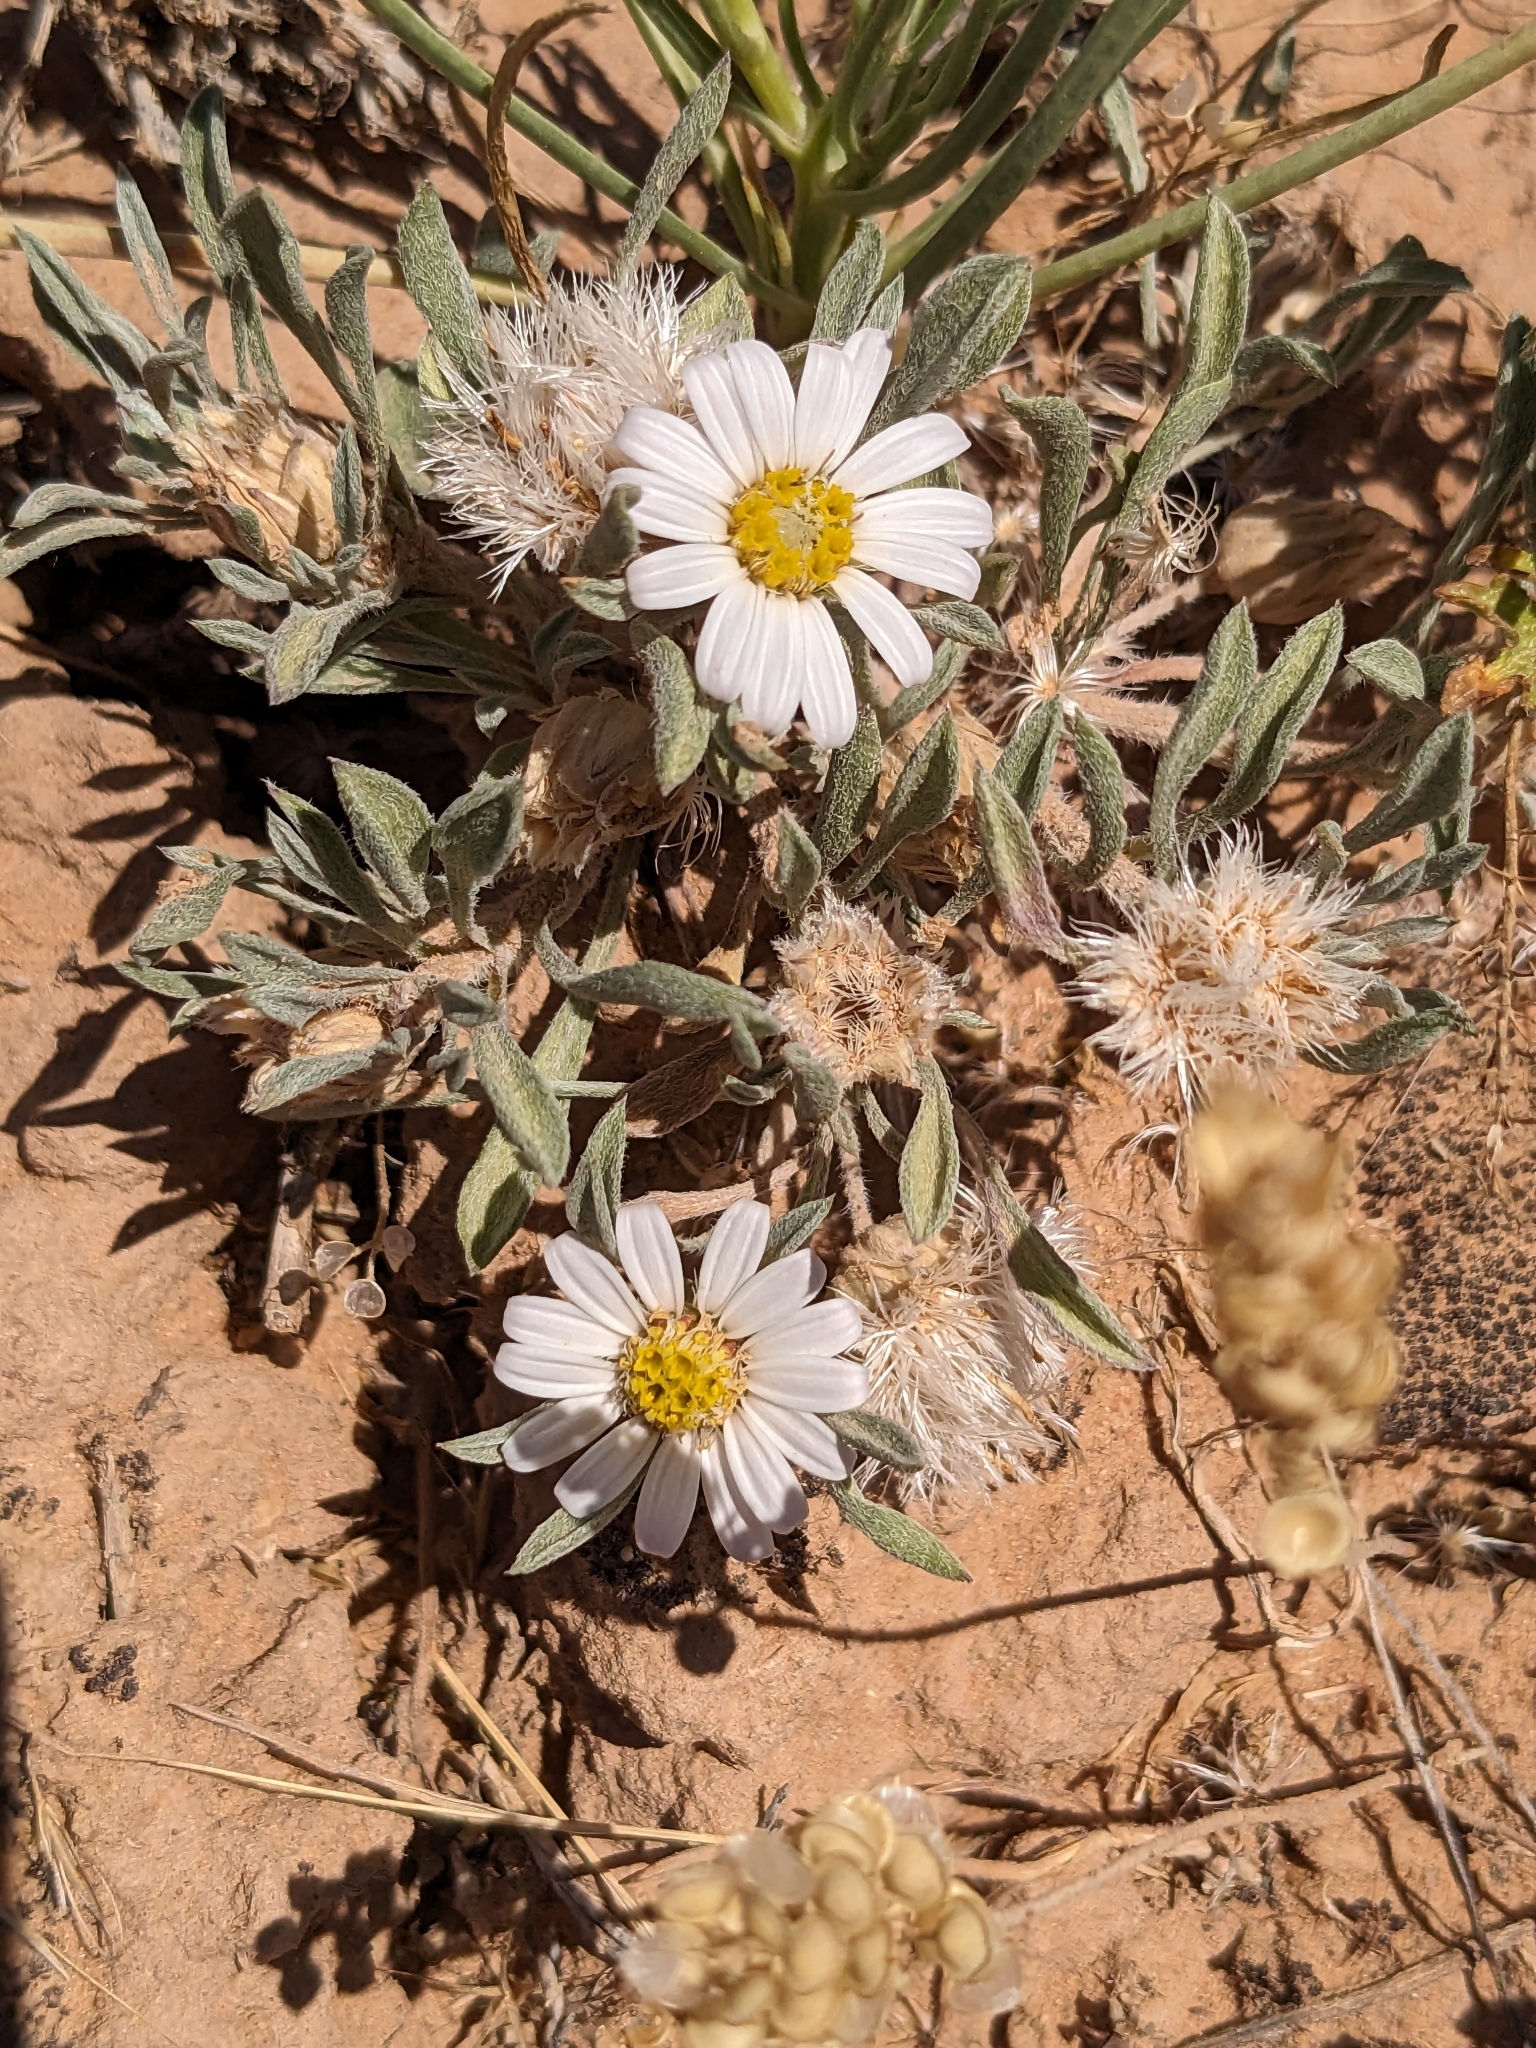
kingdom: Plantae
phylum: Tracheophyta
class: Magnoliopsida
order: Asterales
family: Asteraceae
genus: Townsendia
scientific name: Townsendia incana
